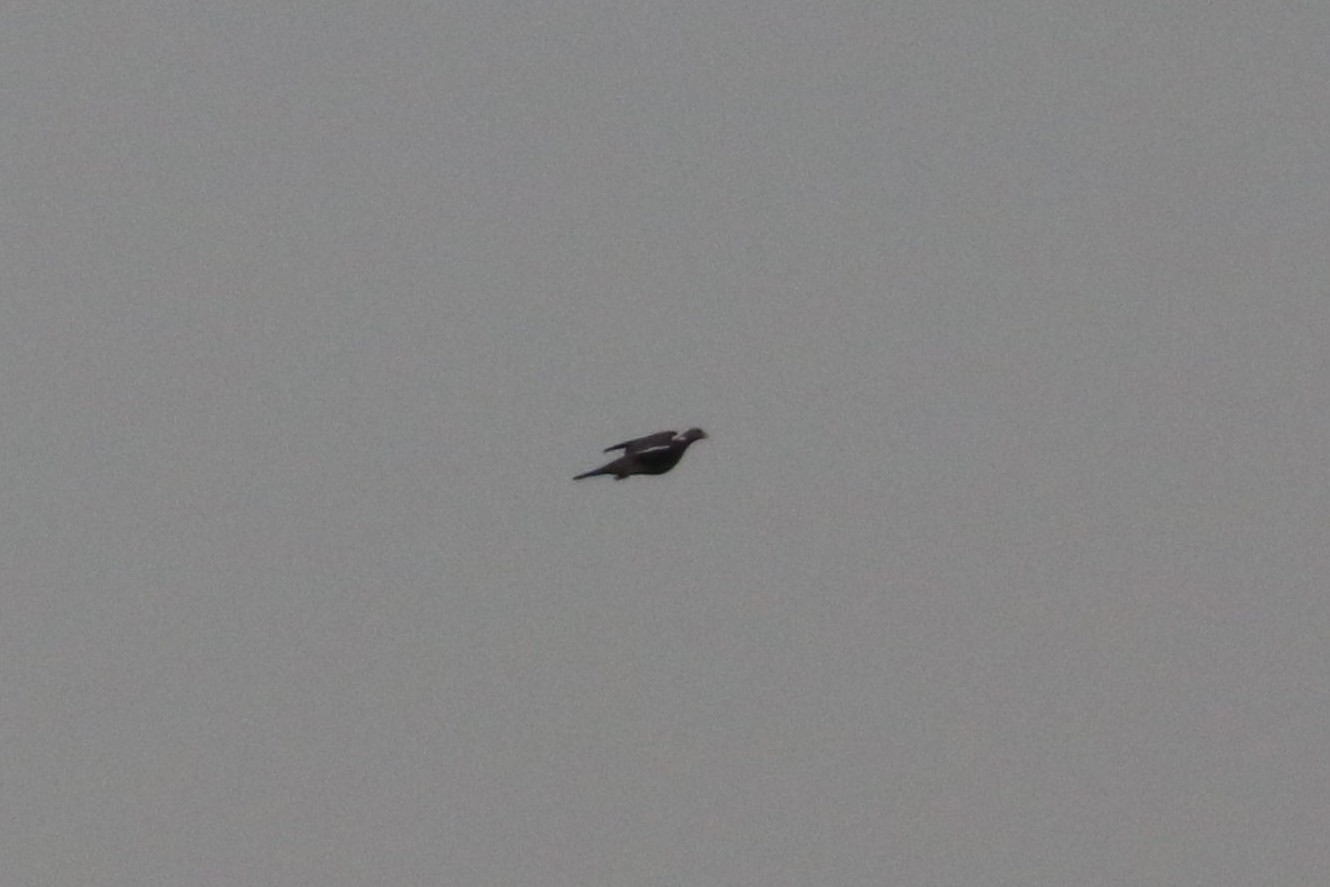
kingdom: Animalia
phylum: Chordata
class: Aves
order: Columbiformes
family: Columbidae
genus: Columba
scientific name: Columba palumbus
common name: Common wood pigeon
